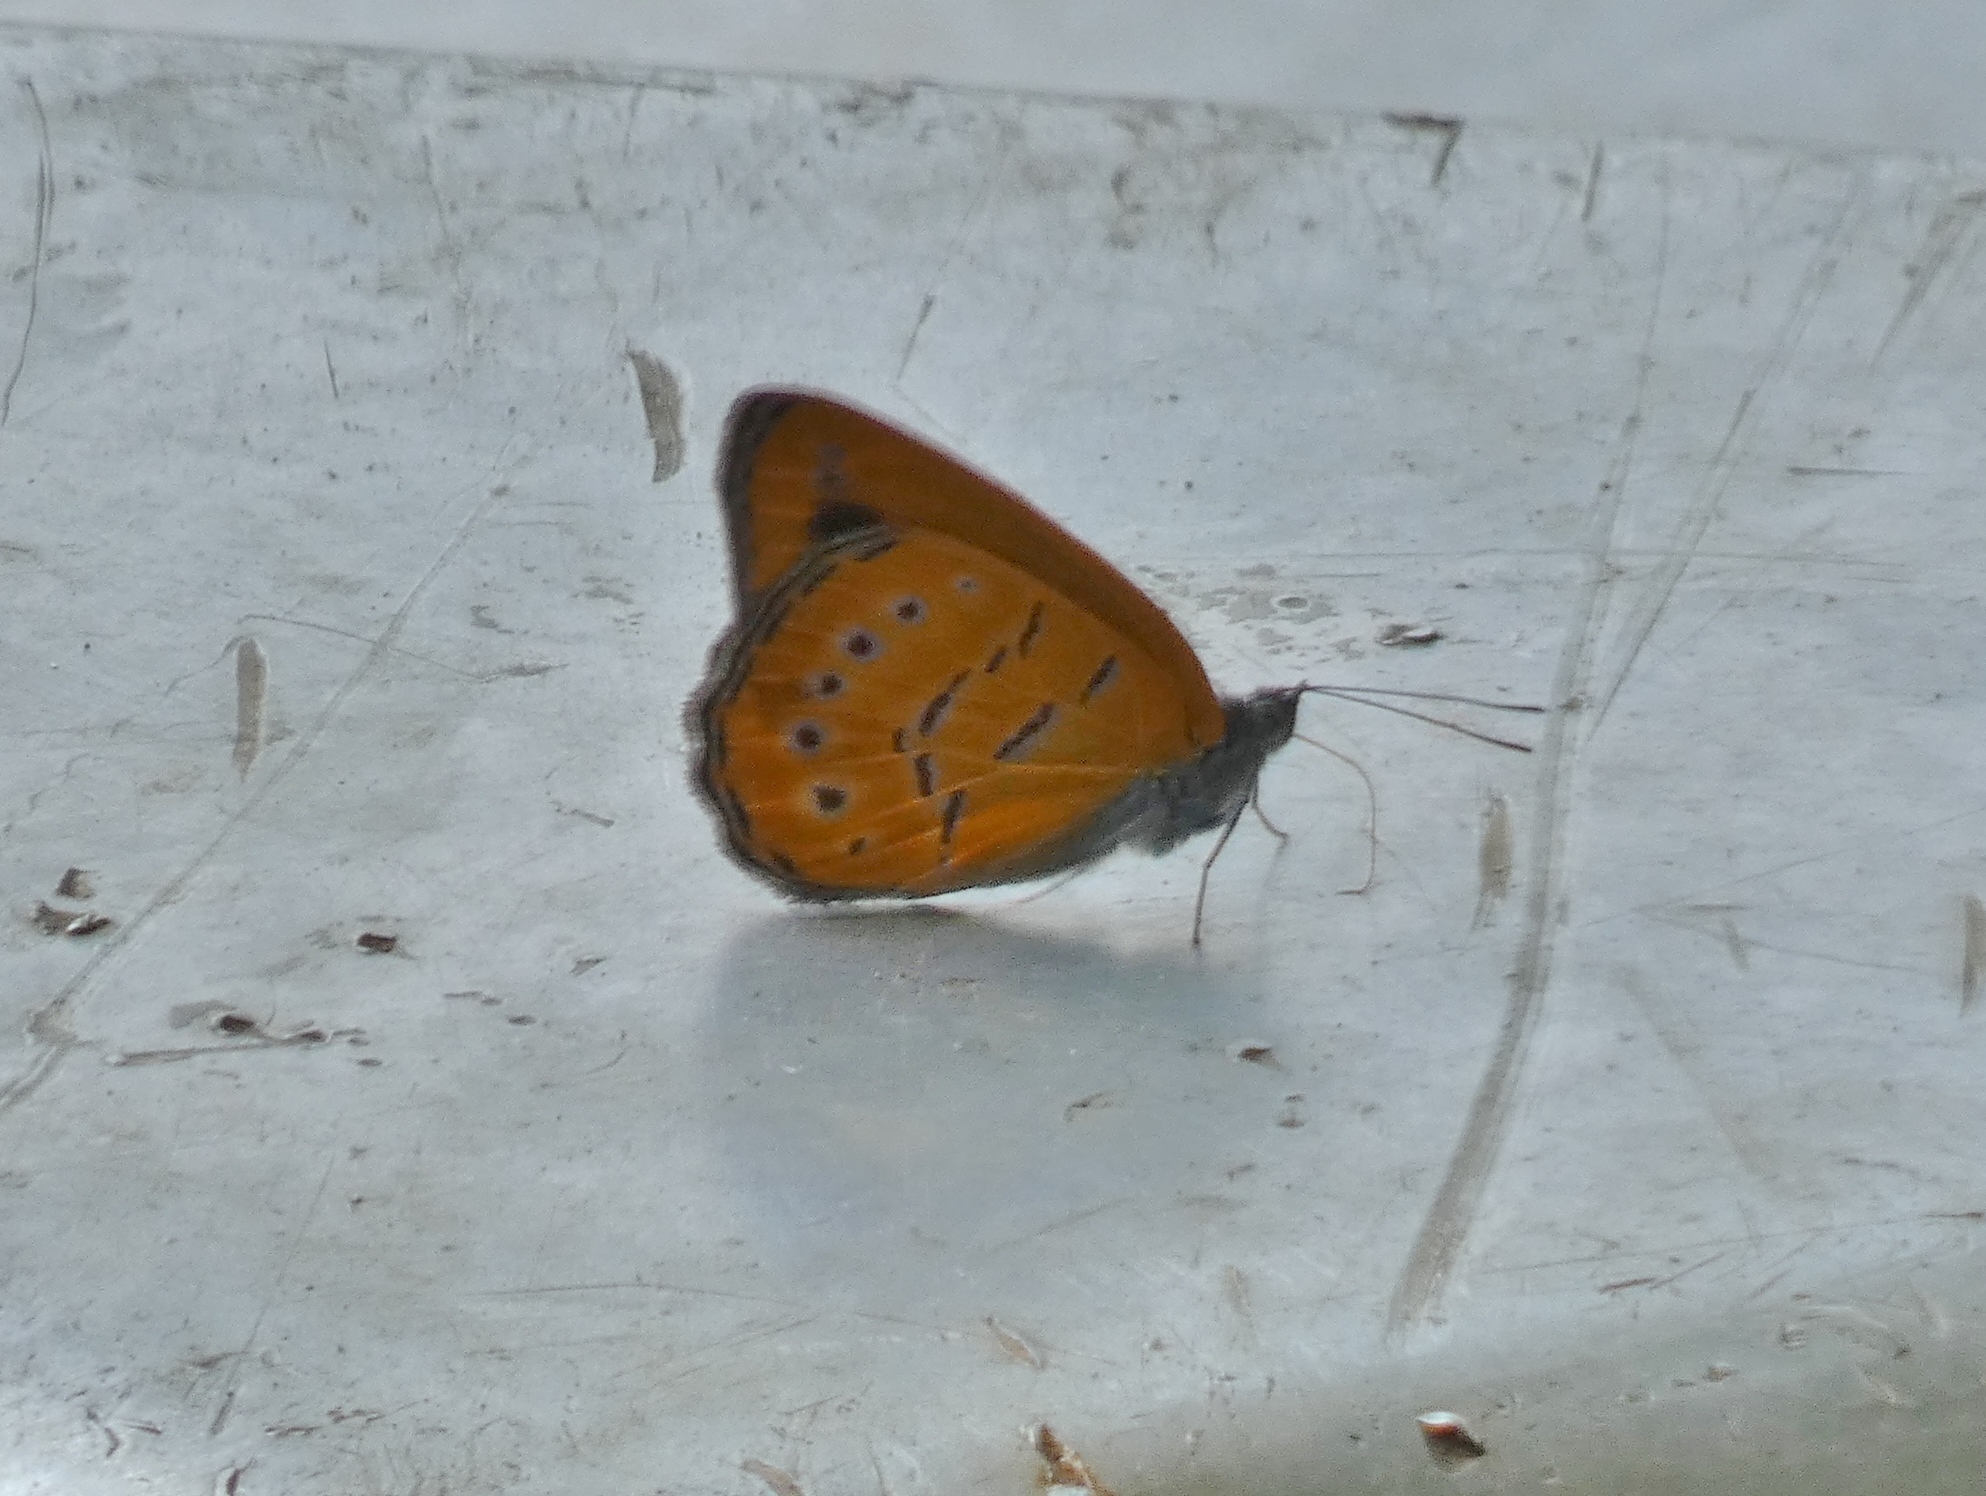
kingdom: Animalia
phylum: Arthropoda
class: Insecta
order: Lepidoptera
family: Nymphalidae
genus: Sevenia
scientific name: Sevenia
